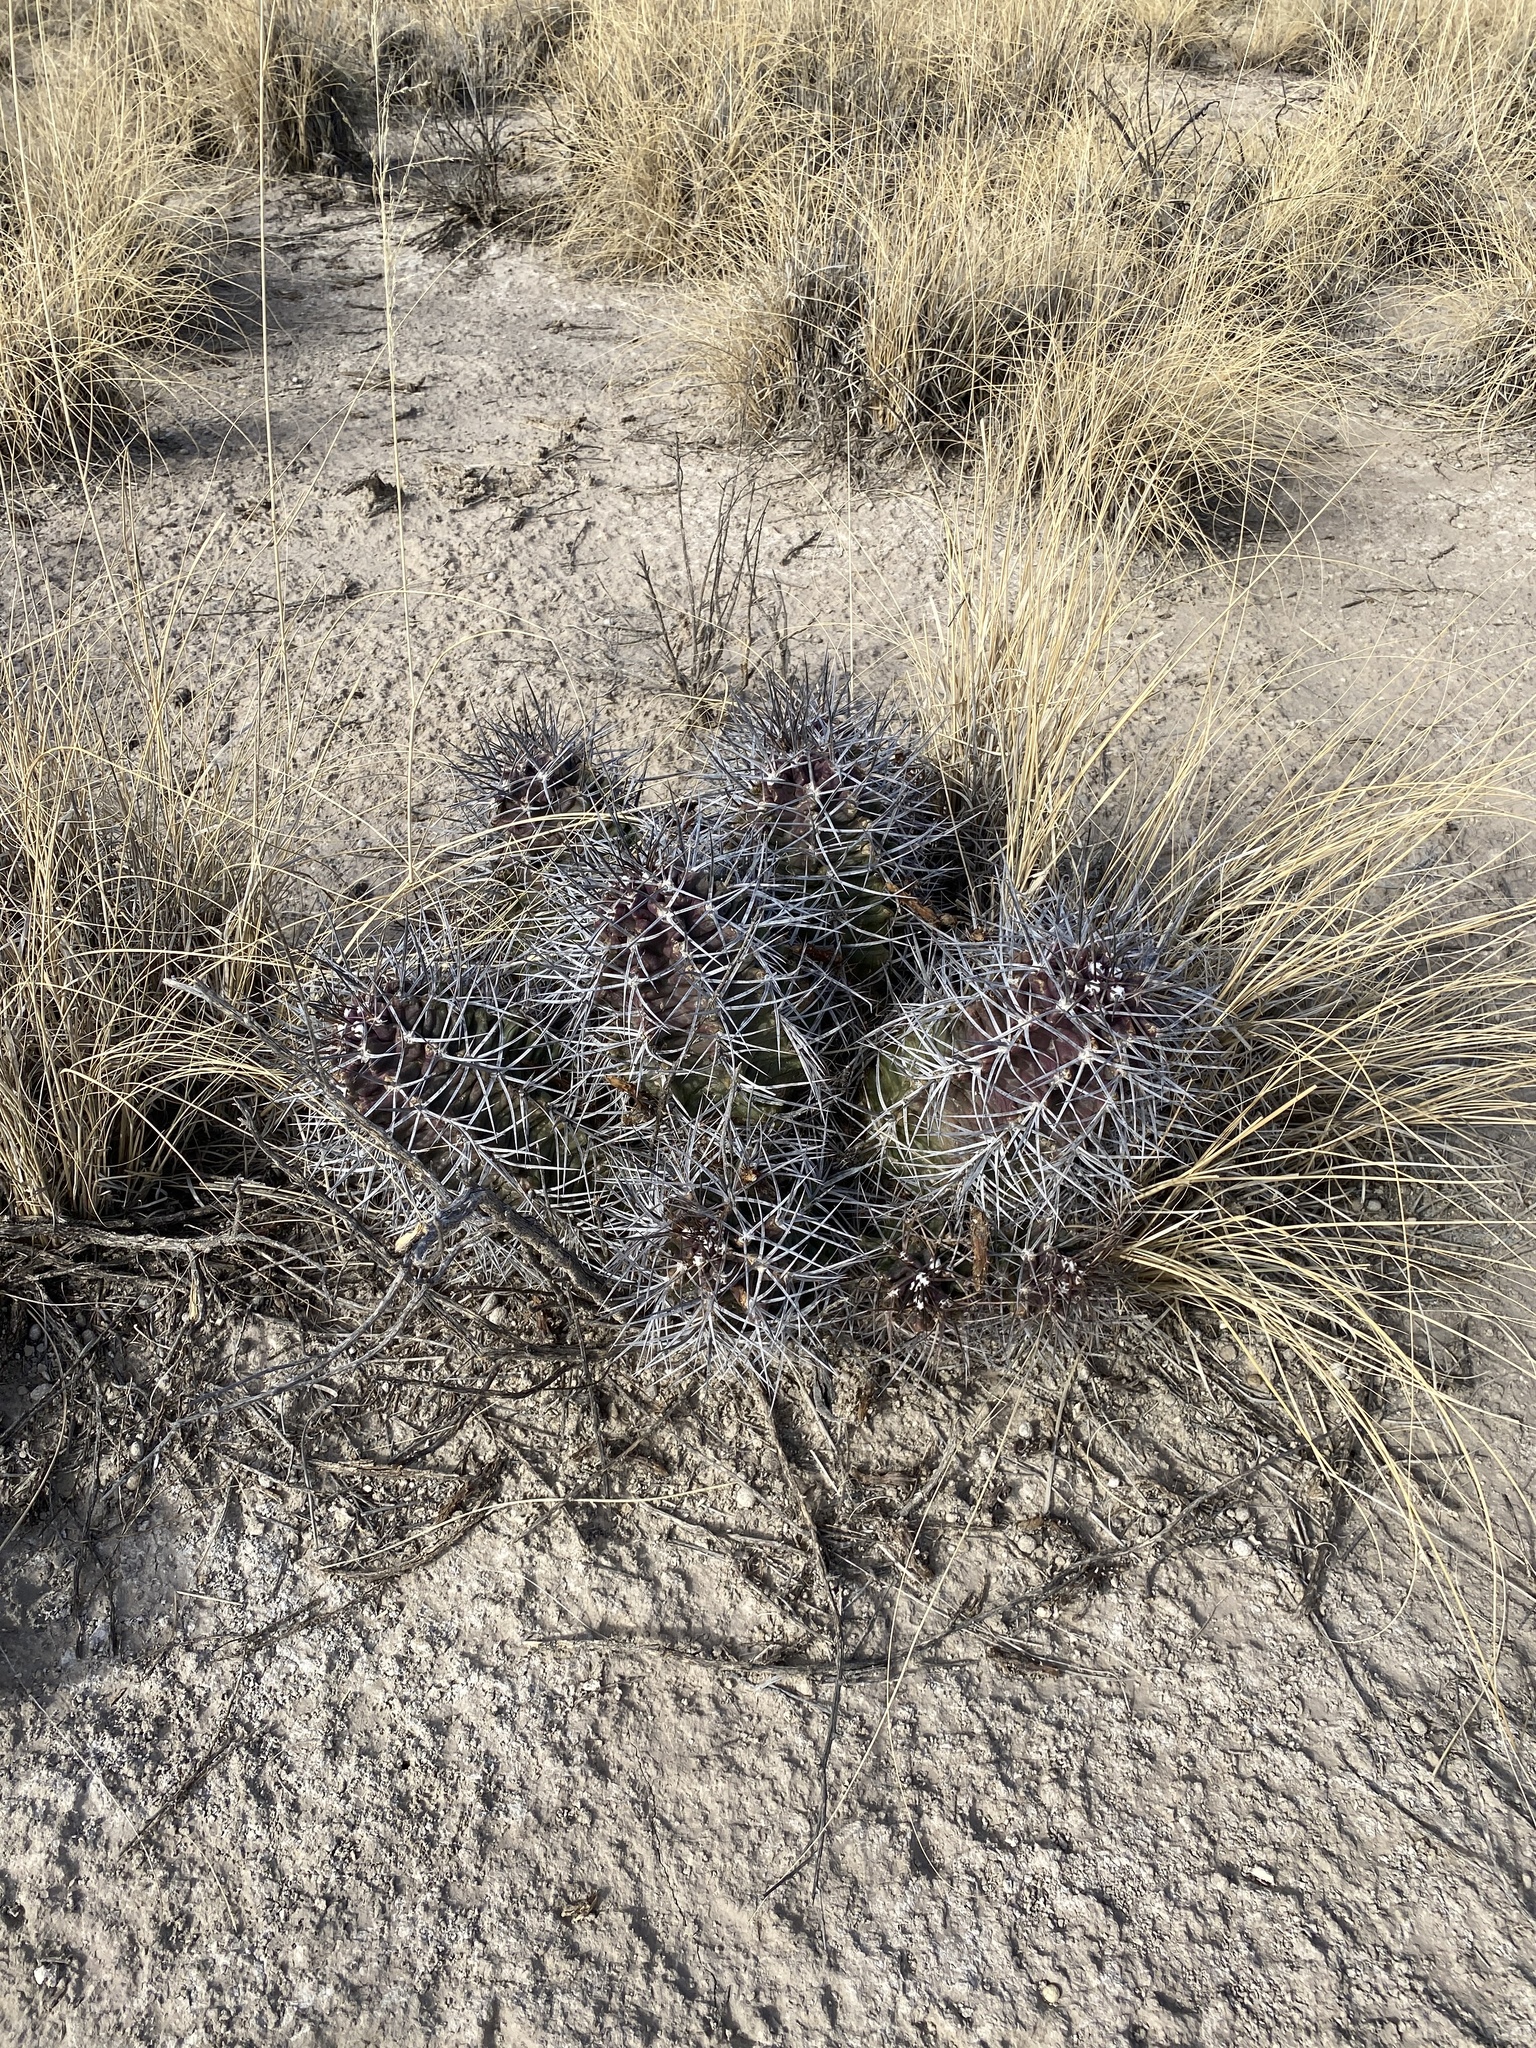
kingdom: Plantae
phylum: Tracheophyta
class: Magnoliopsida
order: Caryophyllales
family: Cactaceae
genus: Echinocereus
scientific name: Echinocereus triglochidiatus
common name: Claretcup hedgehog
